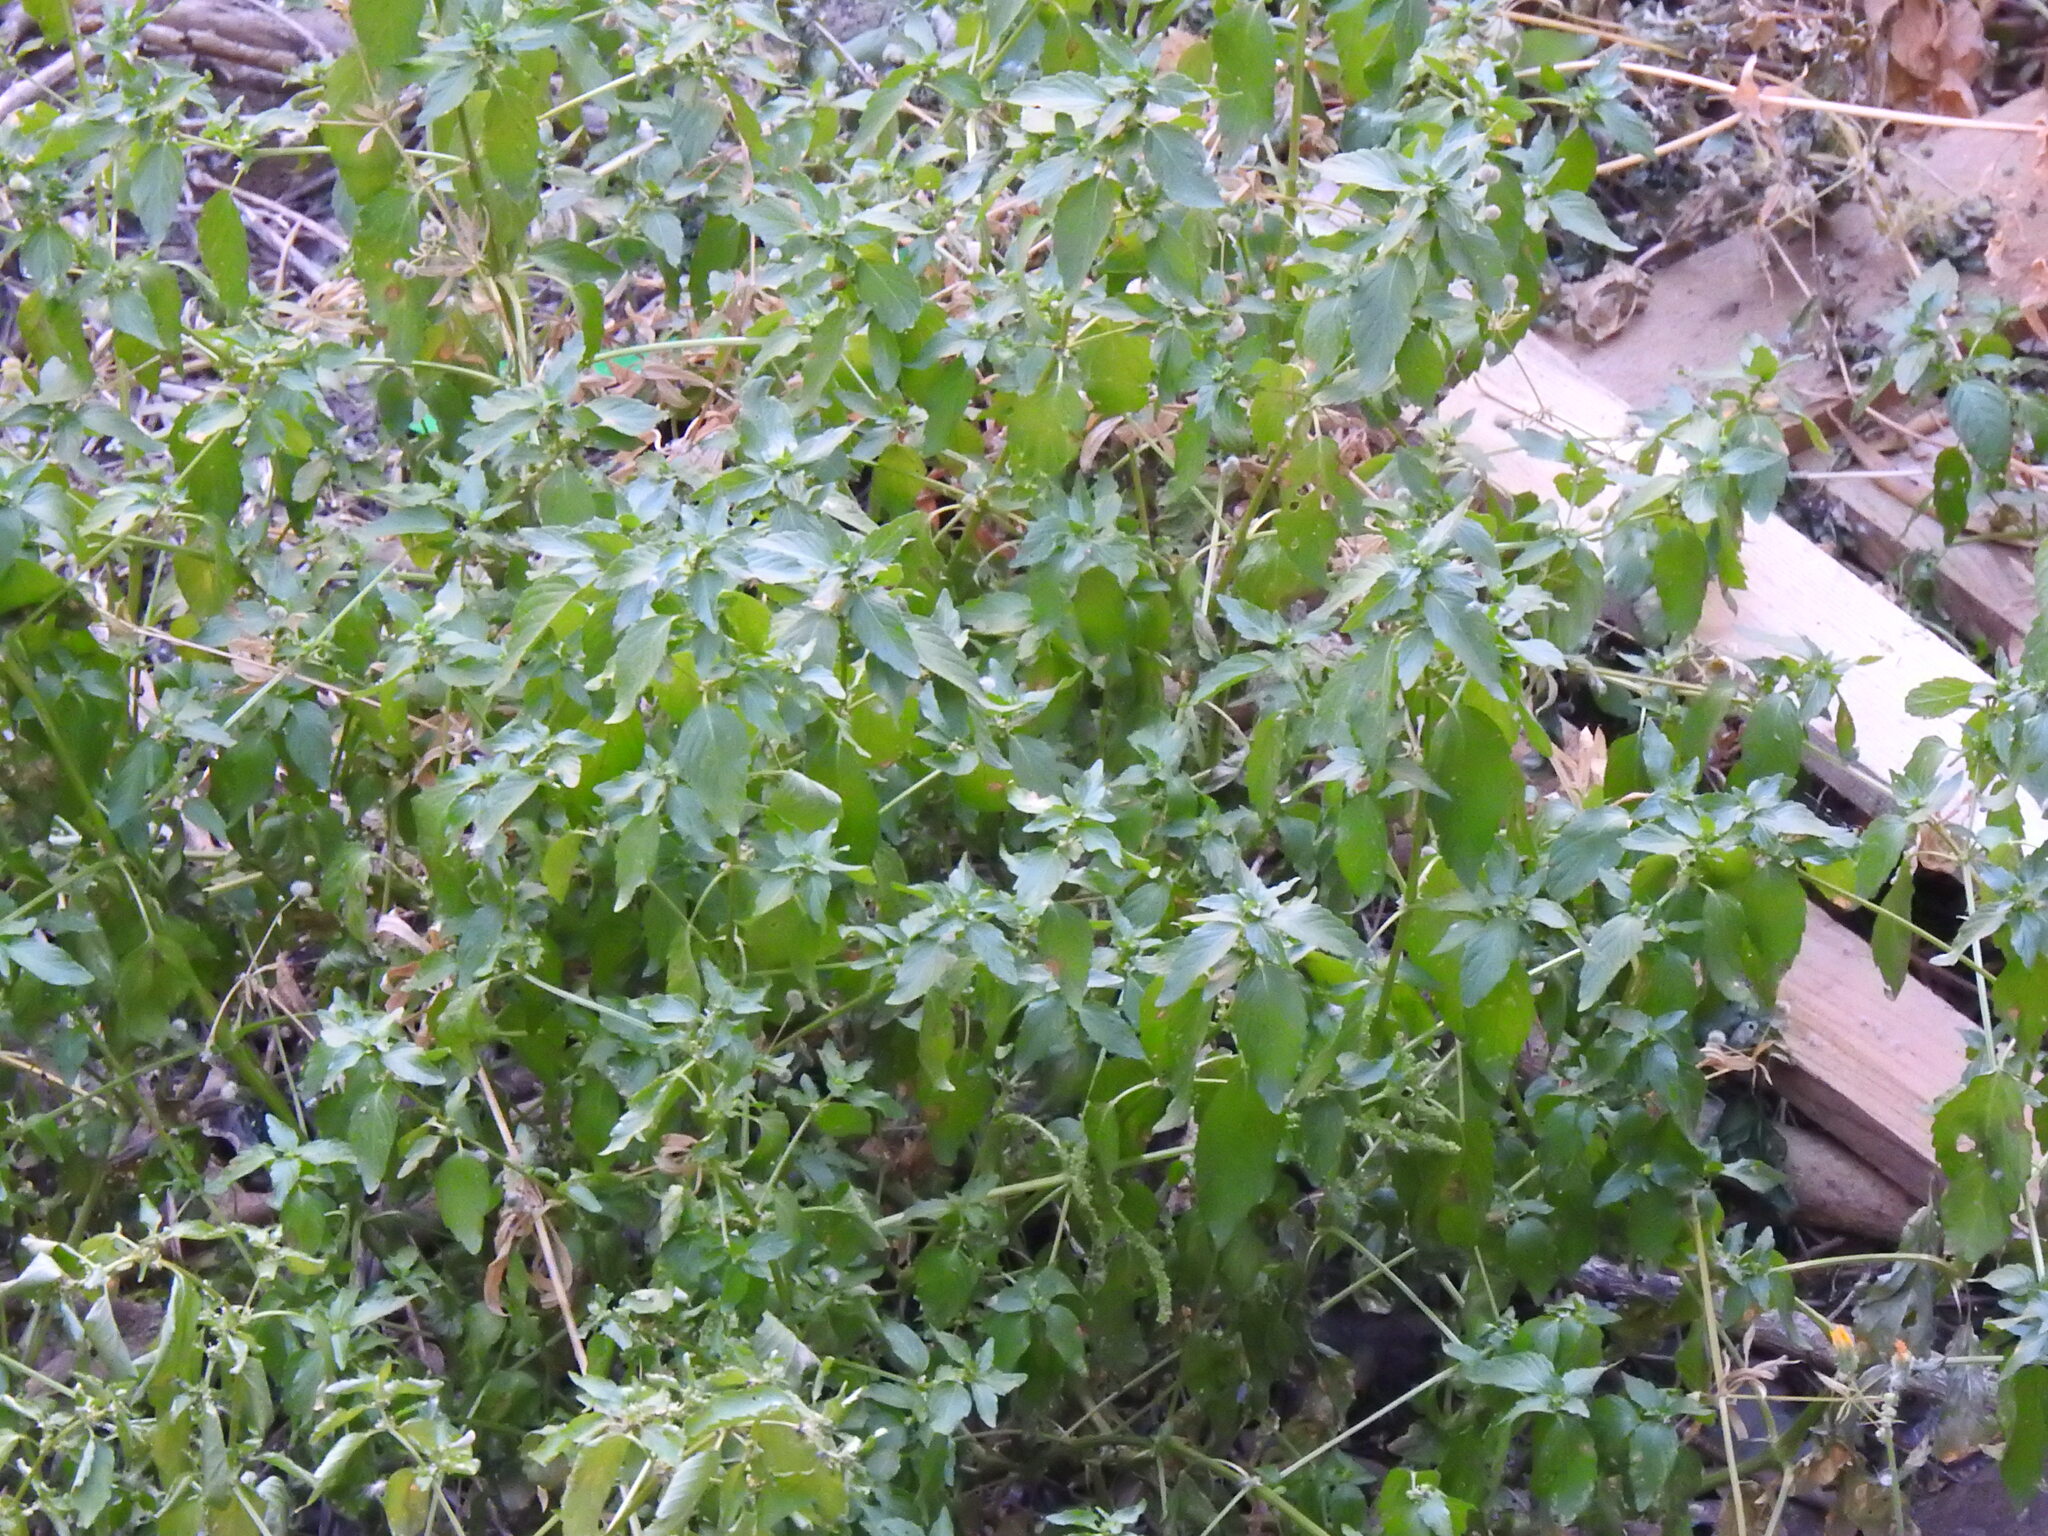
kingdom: Plantae
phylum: Tracheophyta
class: Magnoliopsida
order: Malpighiales
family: Euphorbiaceae
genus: Mercurialis
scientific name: Mercurialis annua
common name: Annual mercury
